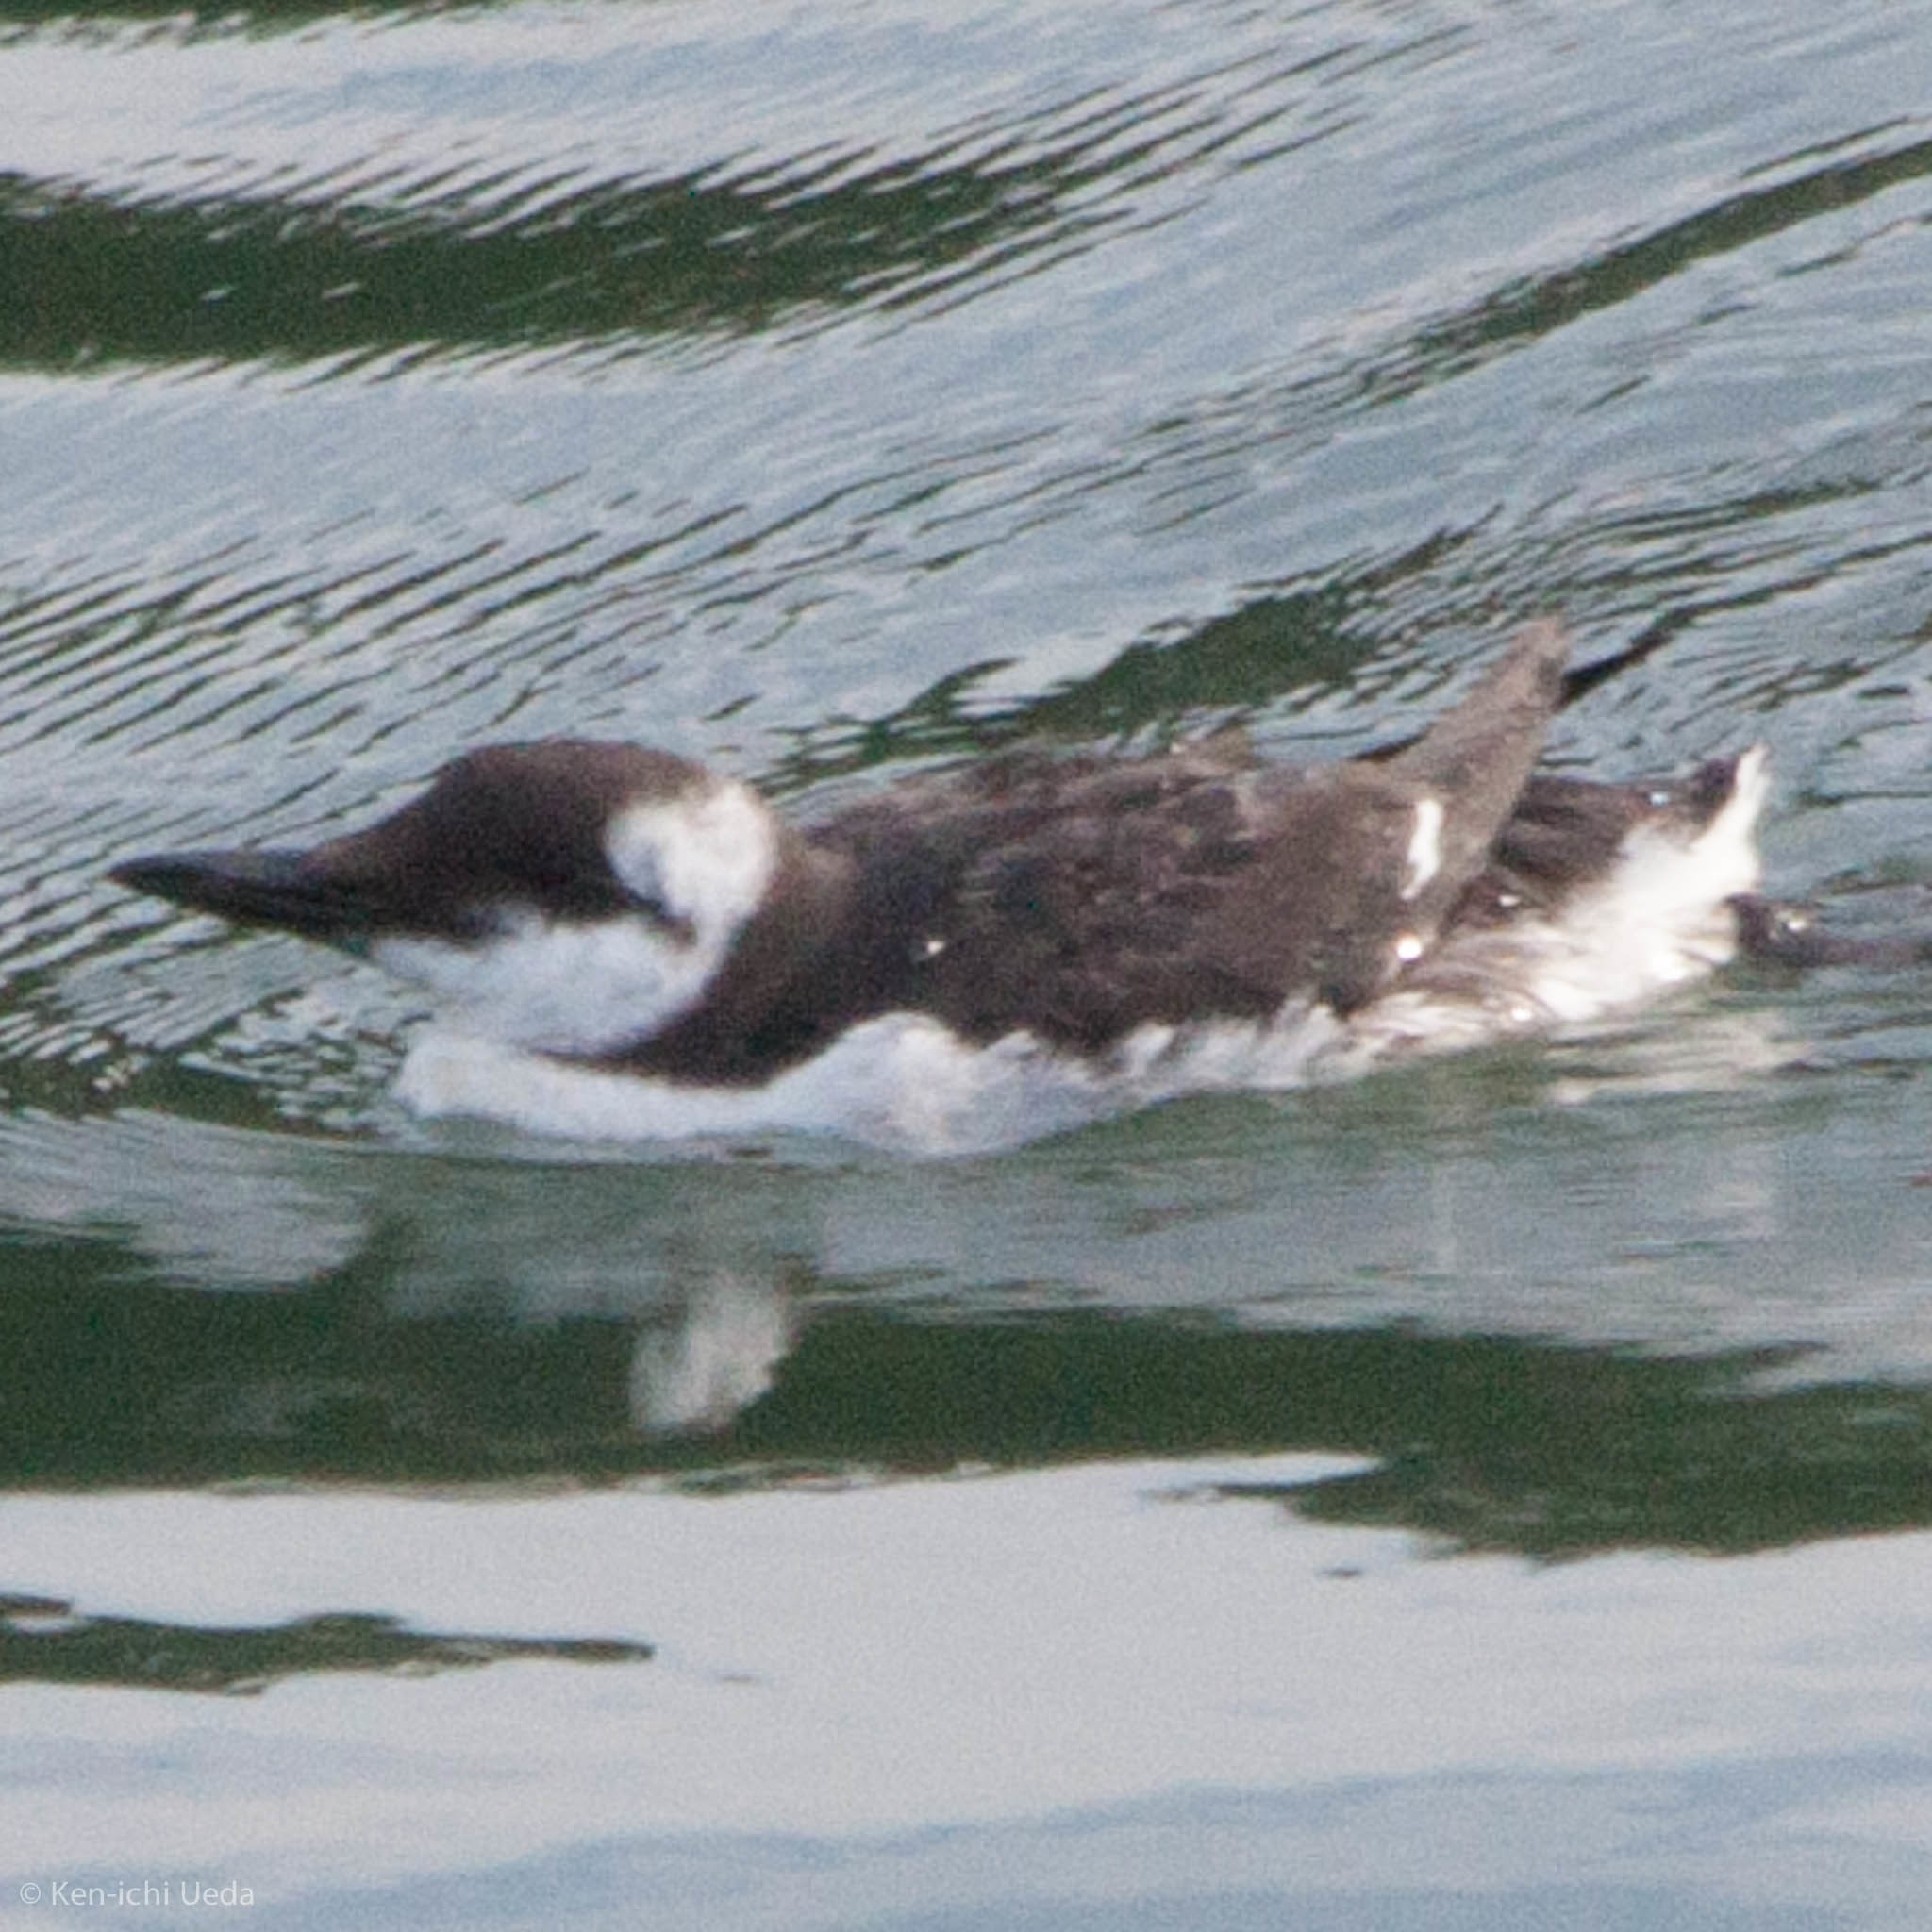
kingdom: Animalia
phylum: Chordata
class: Aves
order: Charadriiformes
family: Alcidae
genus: Uria
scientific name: Uria aalge
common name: Common murre
